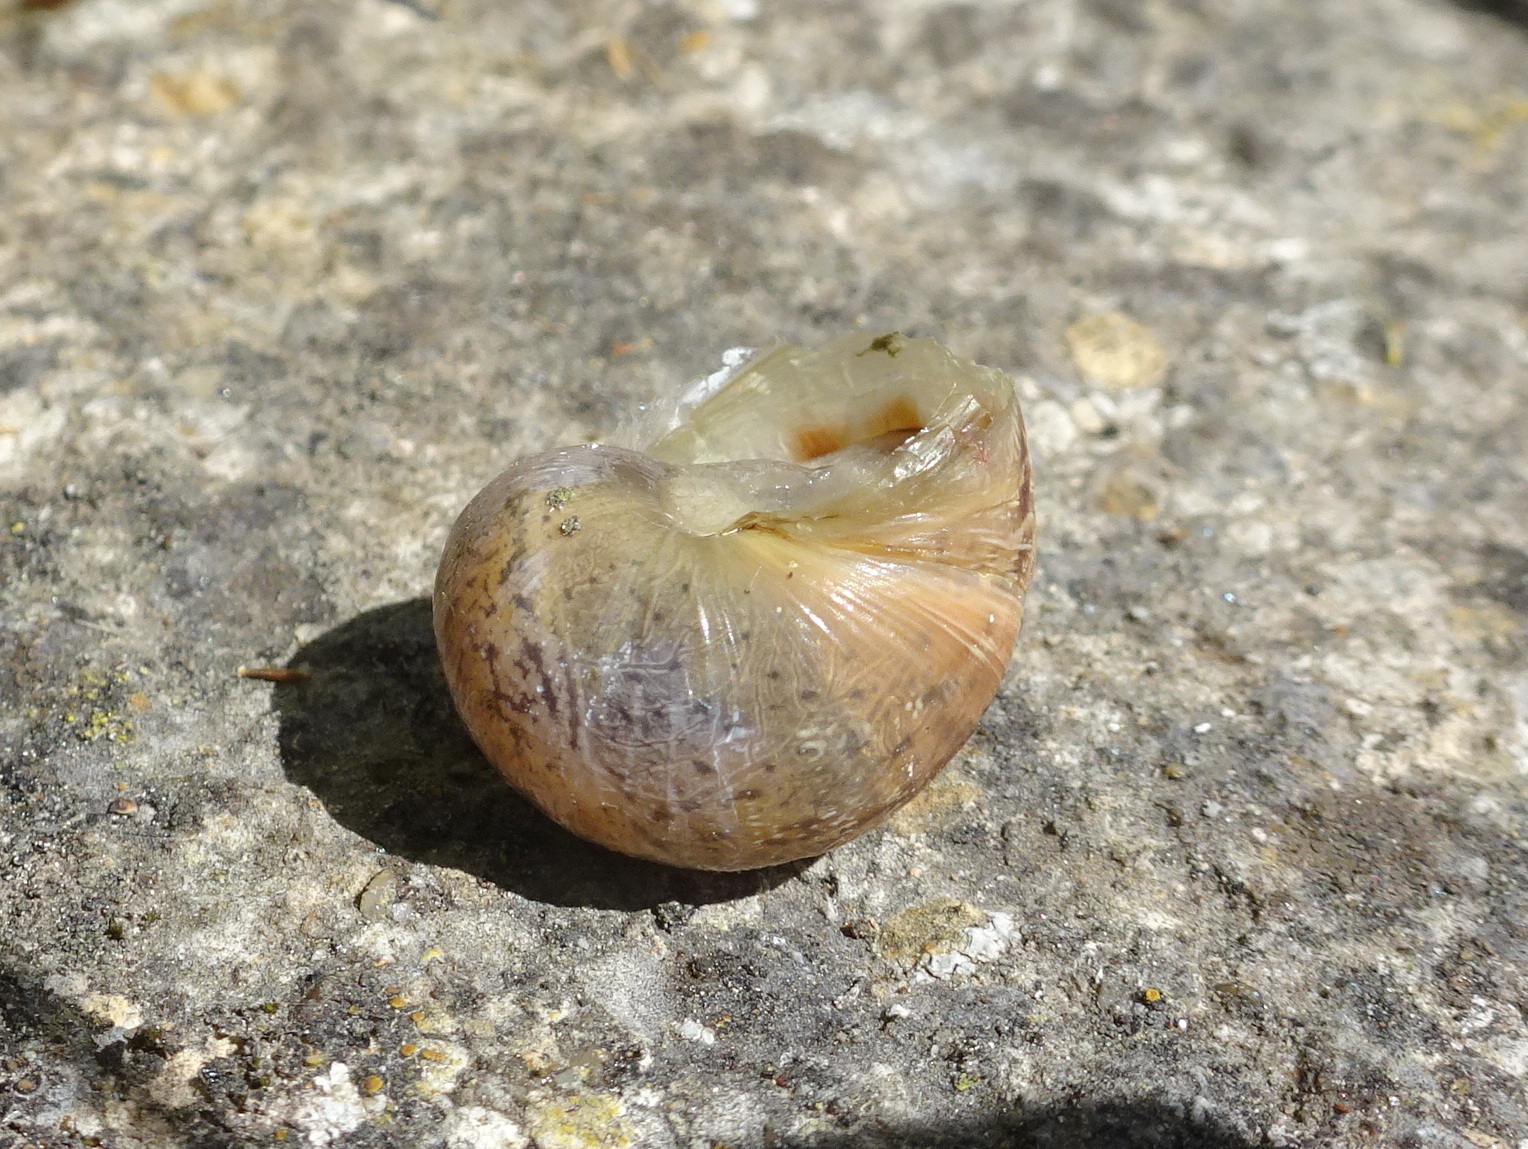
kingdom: Animalia
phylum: Mollusca
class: Gastropoda
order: Stylommatophora
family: Helicidae
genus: Cornu
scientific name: Cornu aspersum
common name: Brown garden snail
